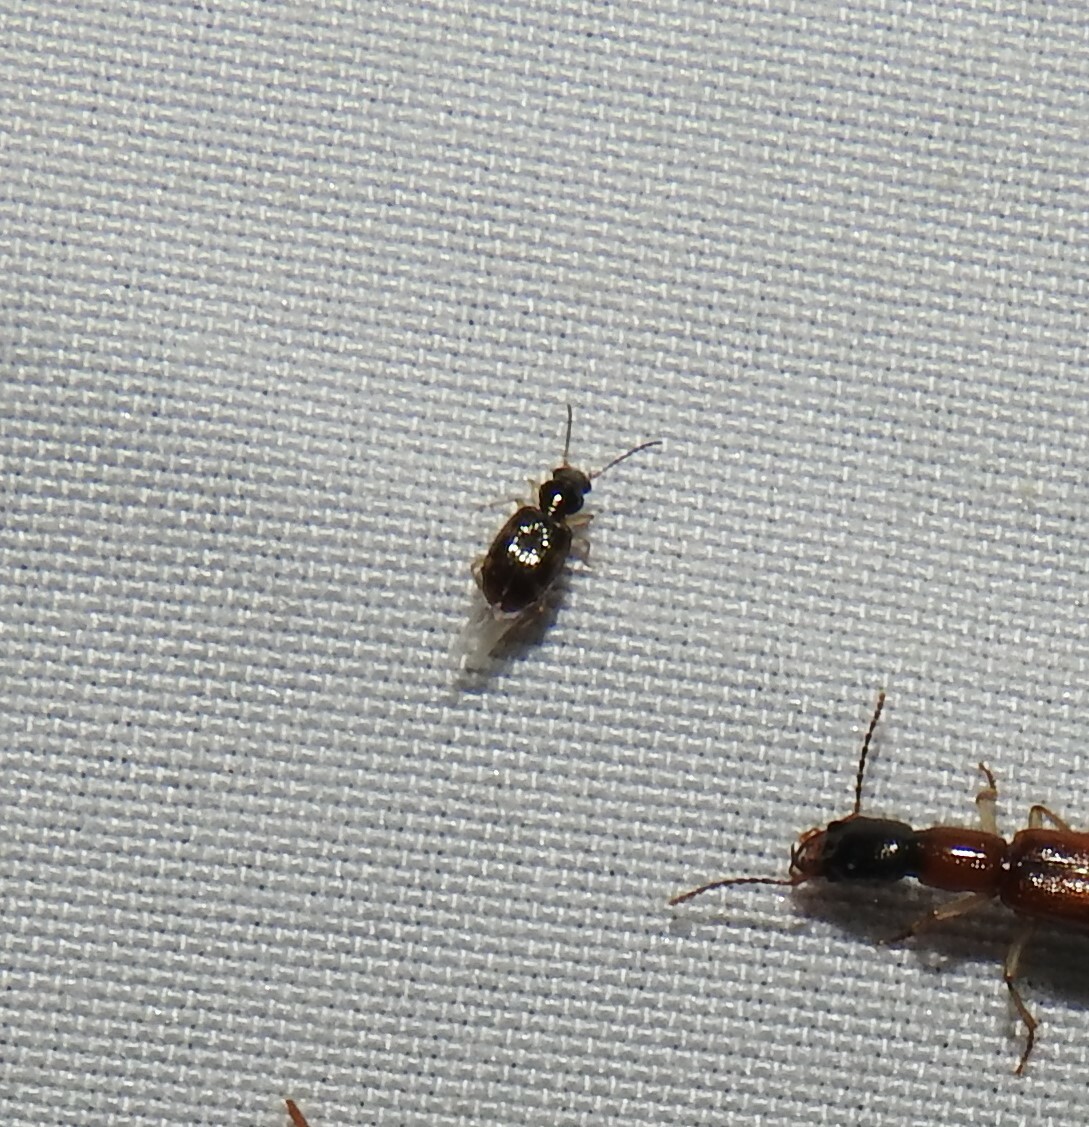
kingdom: Animalia
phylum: Arthropoda
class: Insecta
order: Coleoptera
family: Carabidae
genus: Bembidion
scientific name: Bembidion affine
